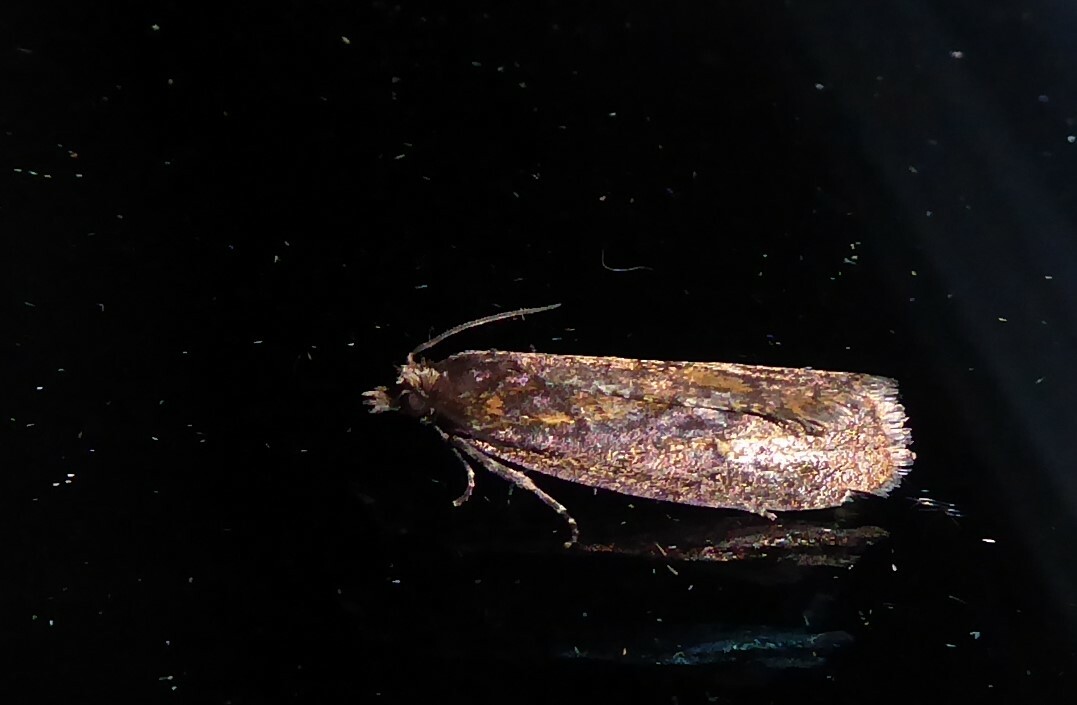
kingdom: Animalia
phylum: Arthropoda
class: Insecta
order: Lepidoptera
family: Tortricidae
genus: Cryptaspasma
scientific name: Cryptaspasma querula
